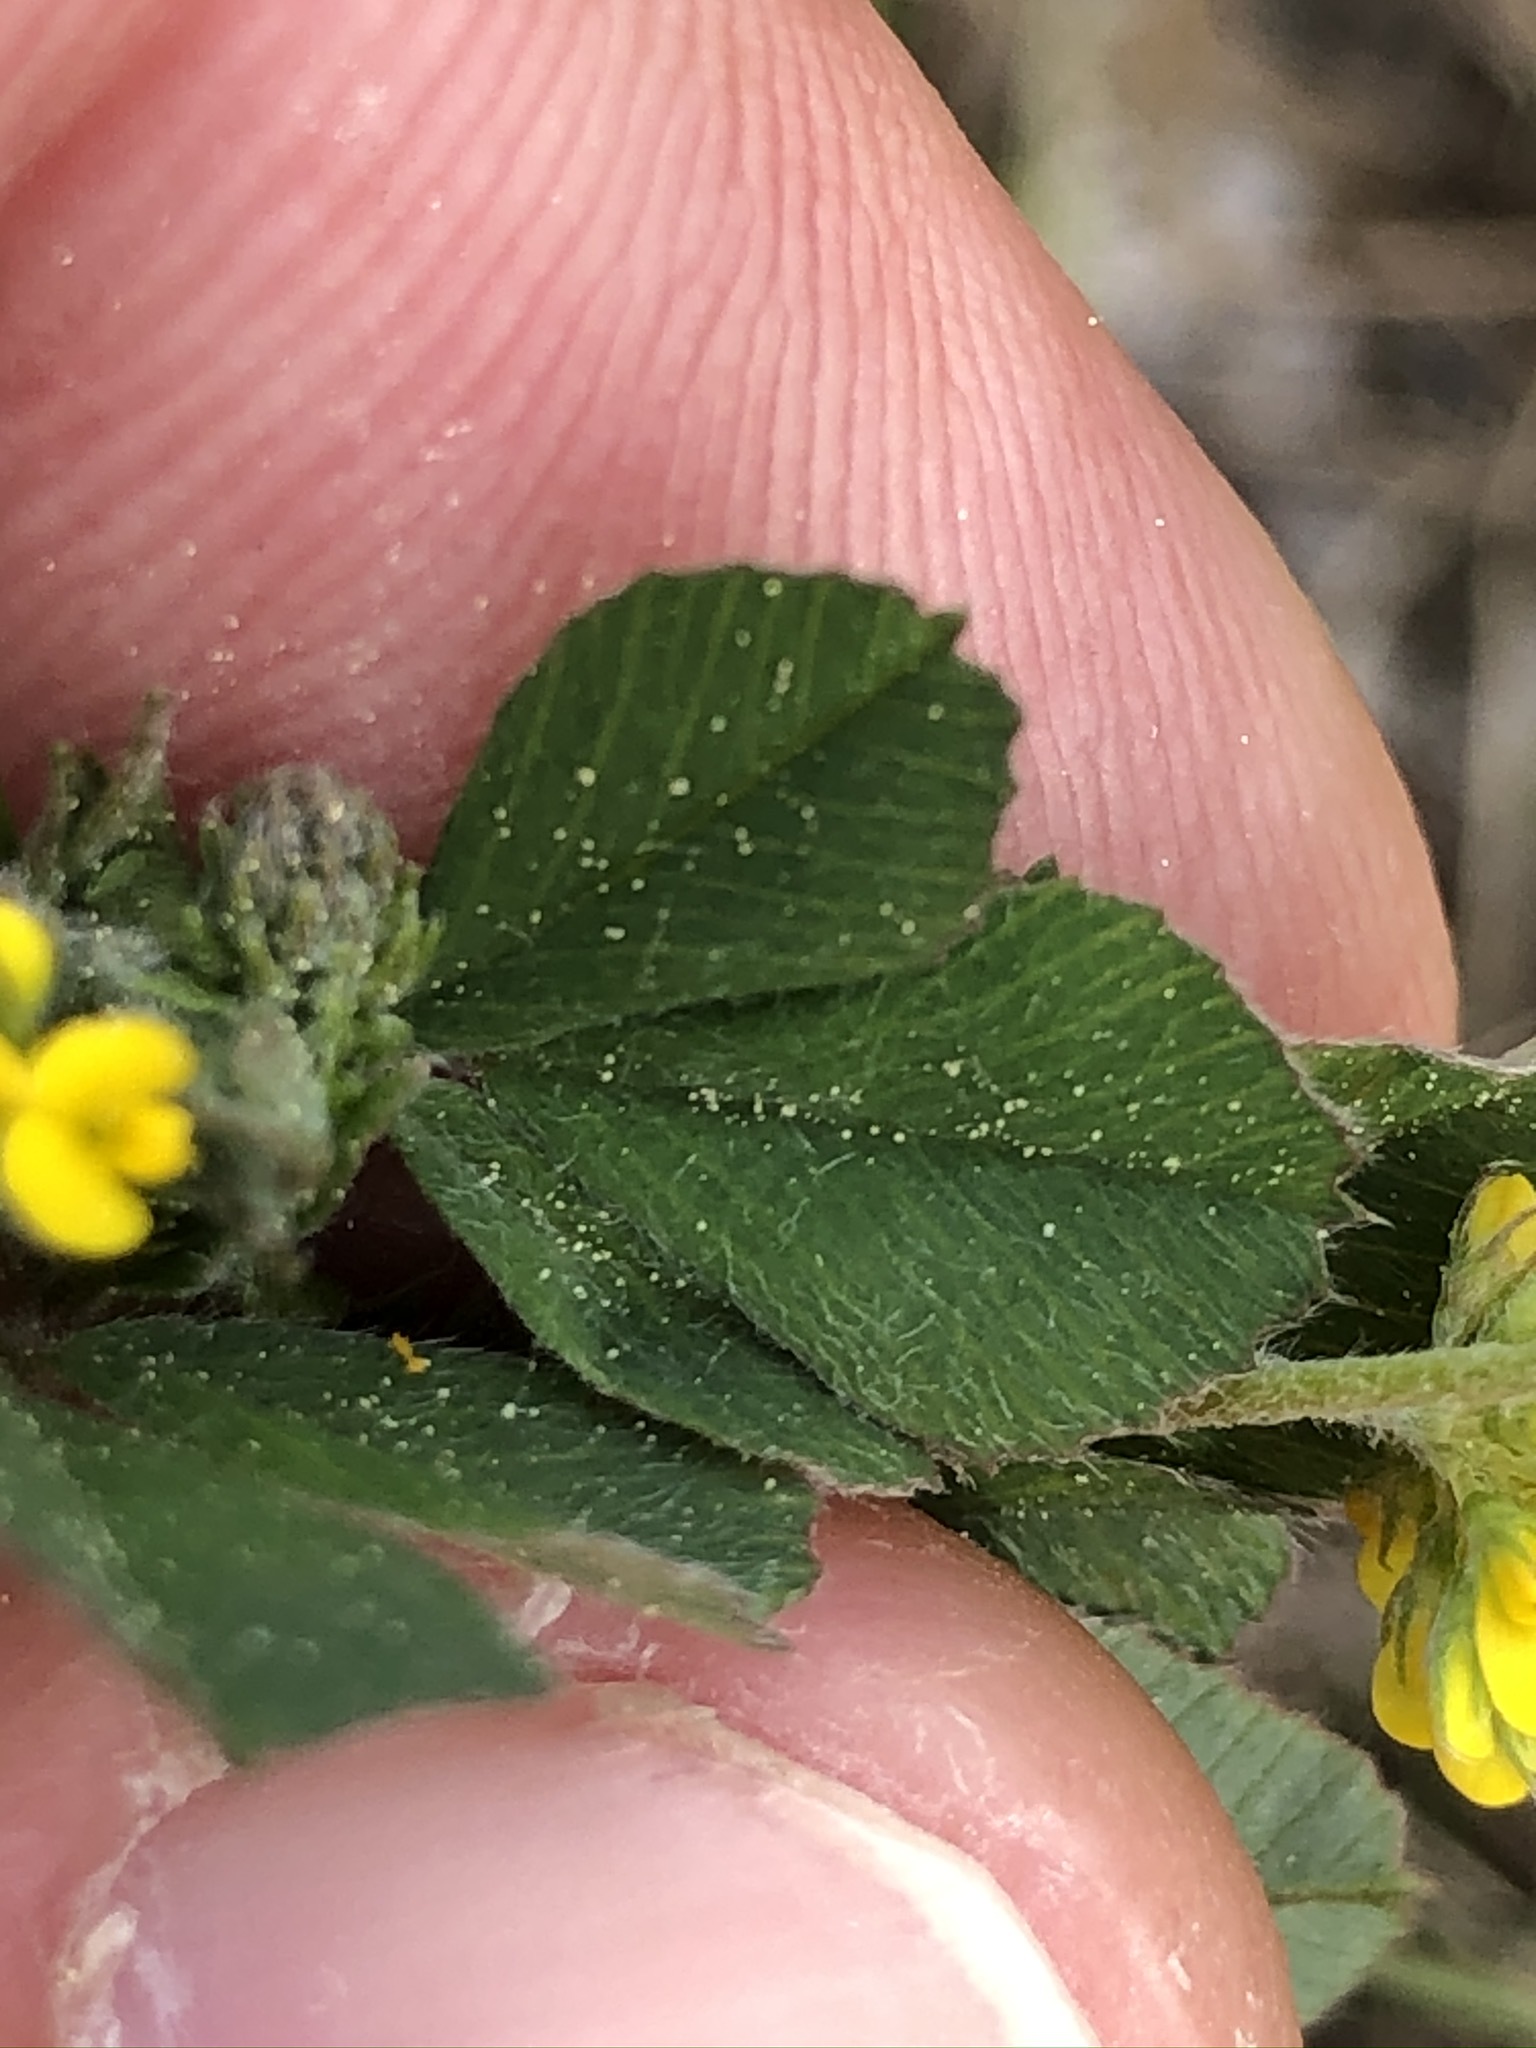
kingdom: Plantae
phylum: Tracheophyta
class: Magnoliopsida
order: Fabales
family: Fabaceae
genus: Medicago
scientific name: Medicago lupulina
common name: Black medick
